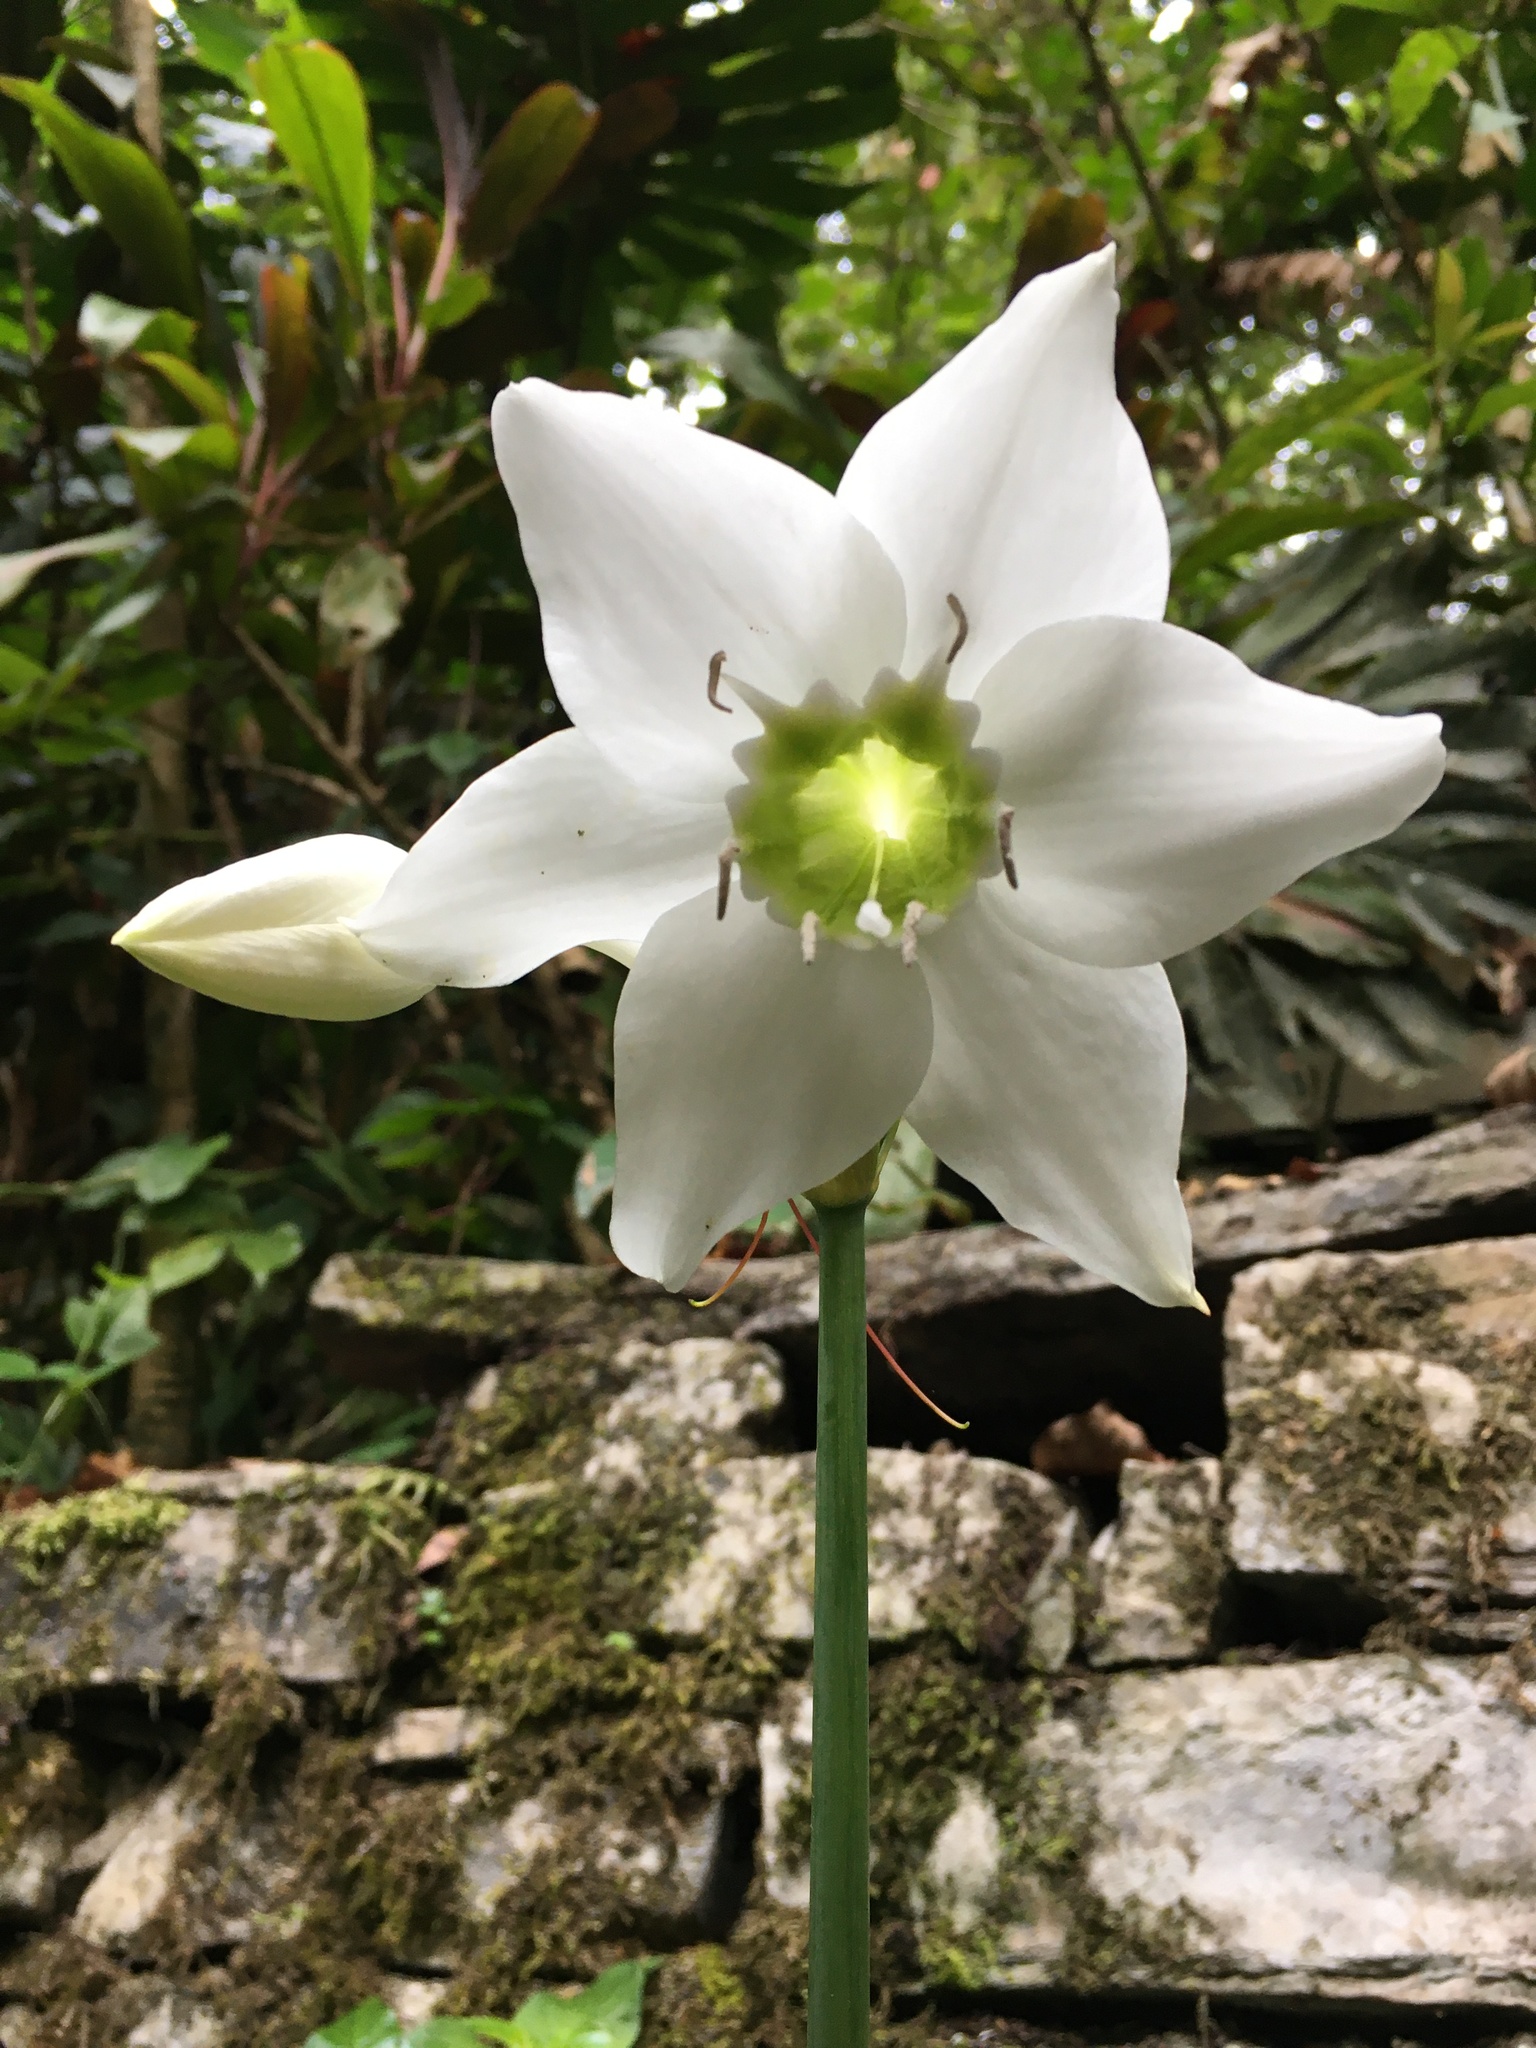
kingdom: Plantae
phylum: Tracheophyta
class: Liliopsida
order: Asparagales
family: Amaryllidaceae
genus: Urceolina
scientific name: Urceolina amazonica
